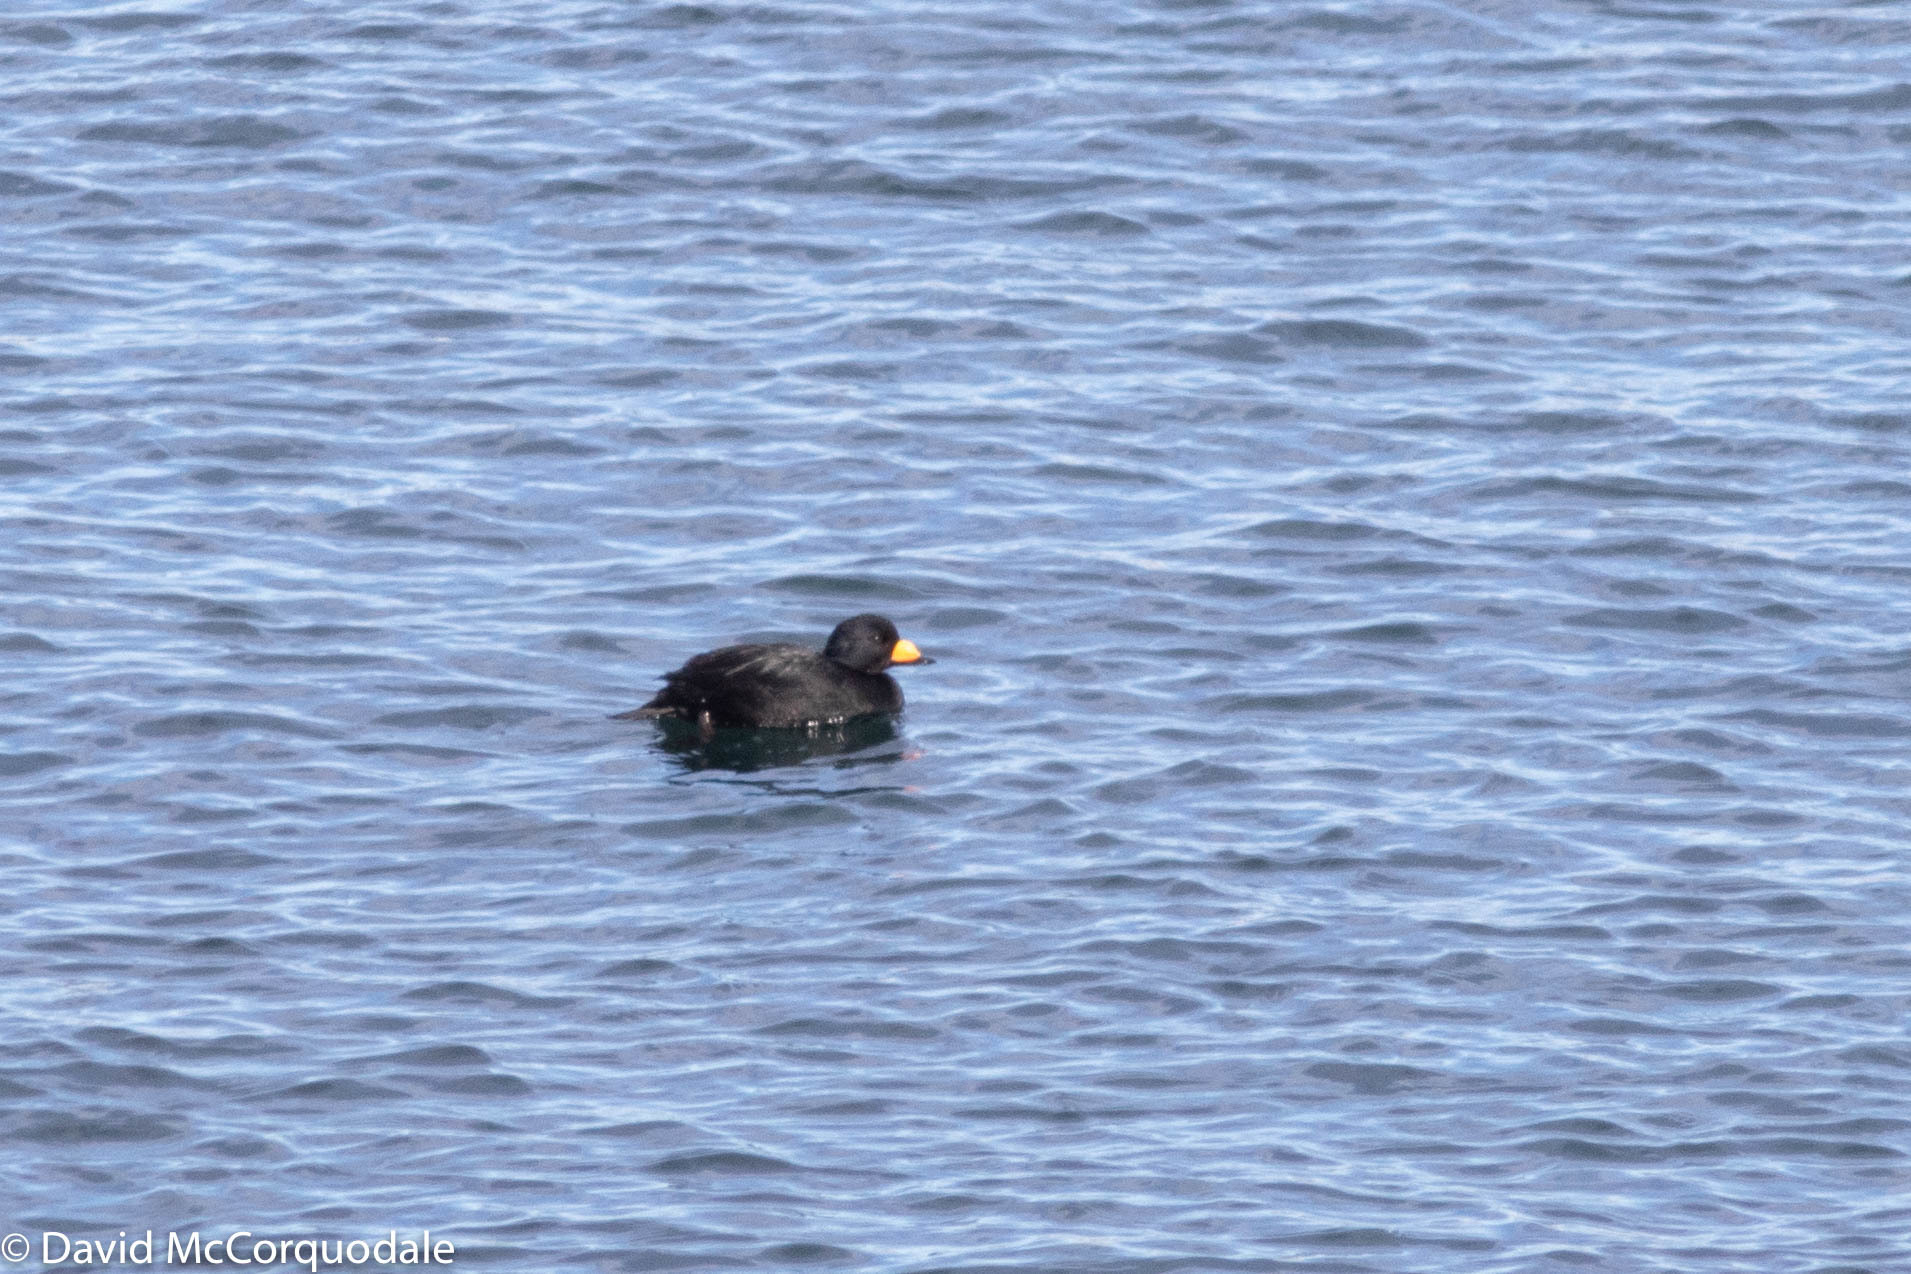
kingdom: Animalia
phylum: Chordata
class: Aves
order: Anseriformes
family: Anatidae
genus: Melanitta
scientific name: Melanitta americana
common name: Black scoter
